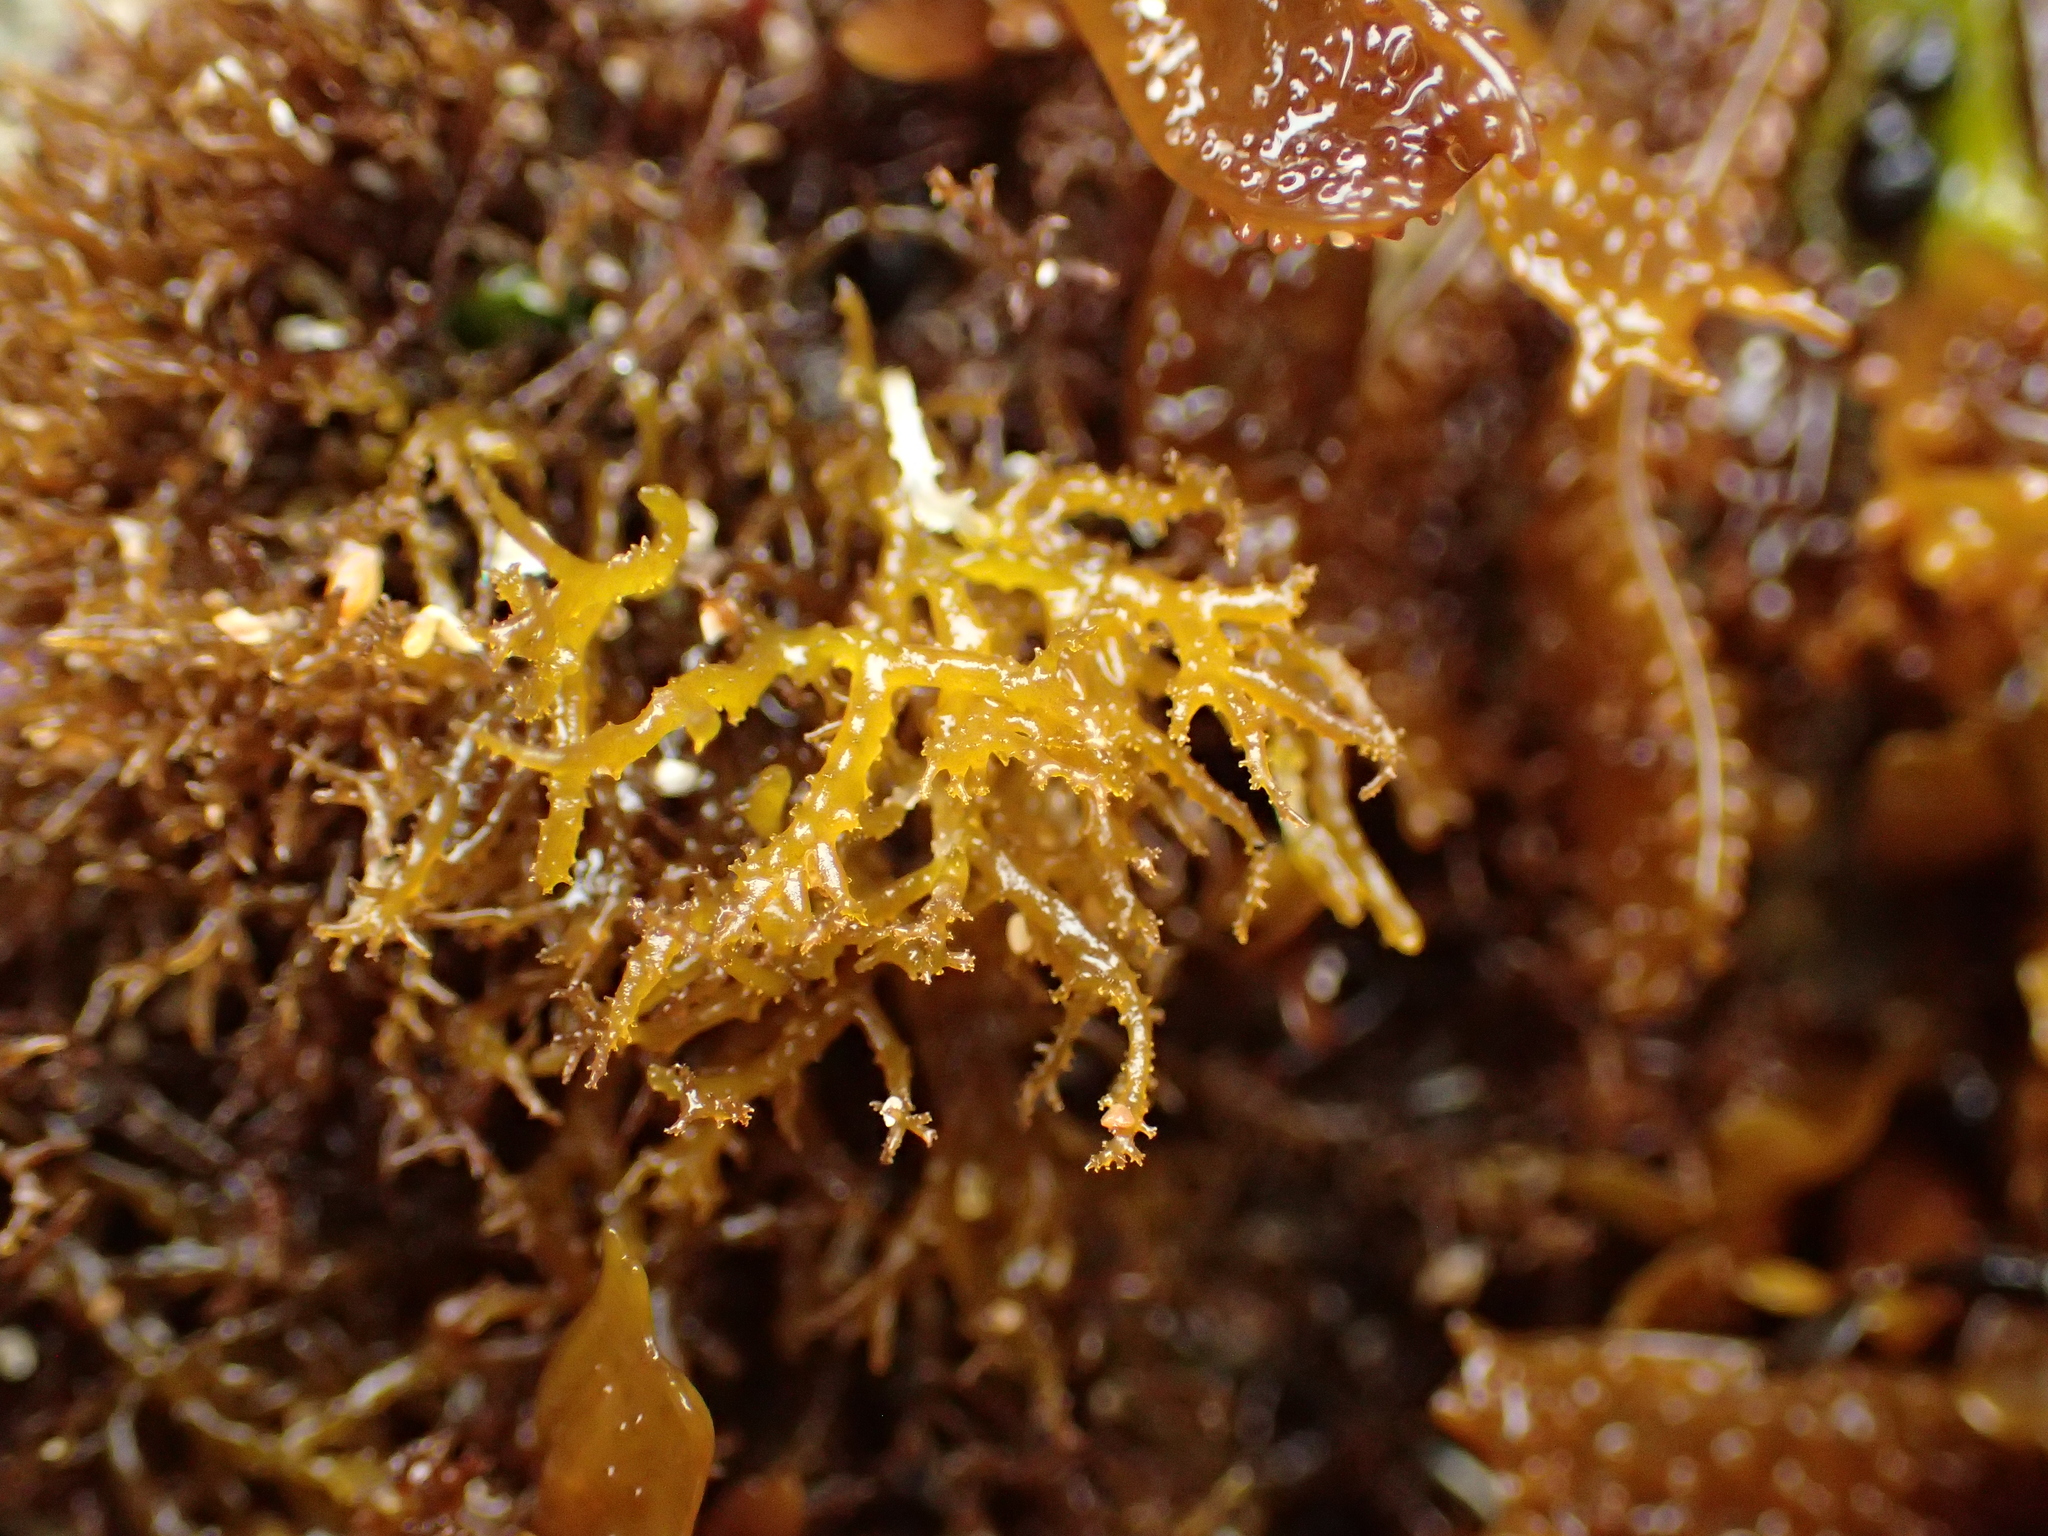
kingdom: Plantae
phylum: Rhodophyta
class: Florideophyceae
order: Gigartinales
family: Endocladiaceae
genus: Endocladia
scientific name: Endocladia muricata
